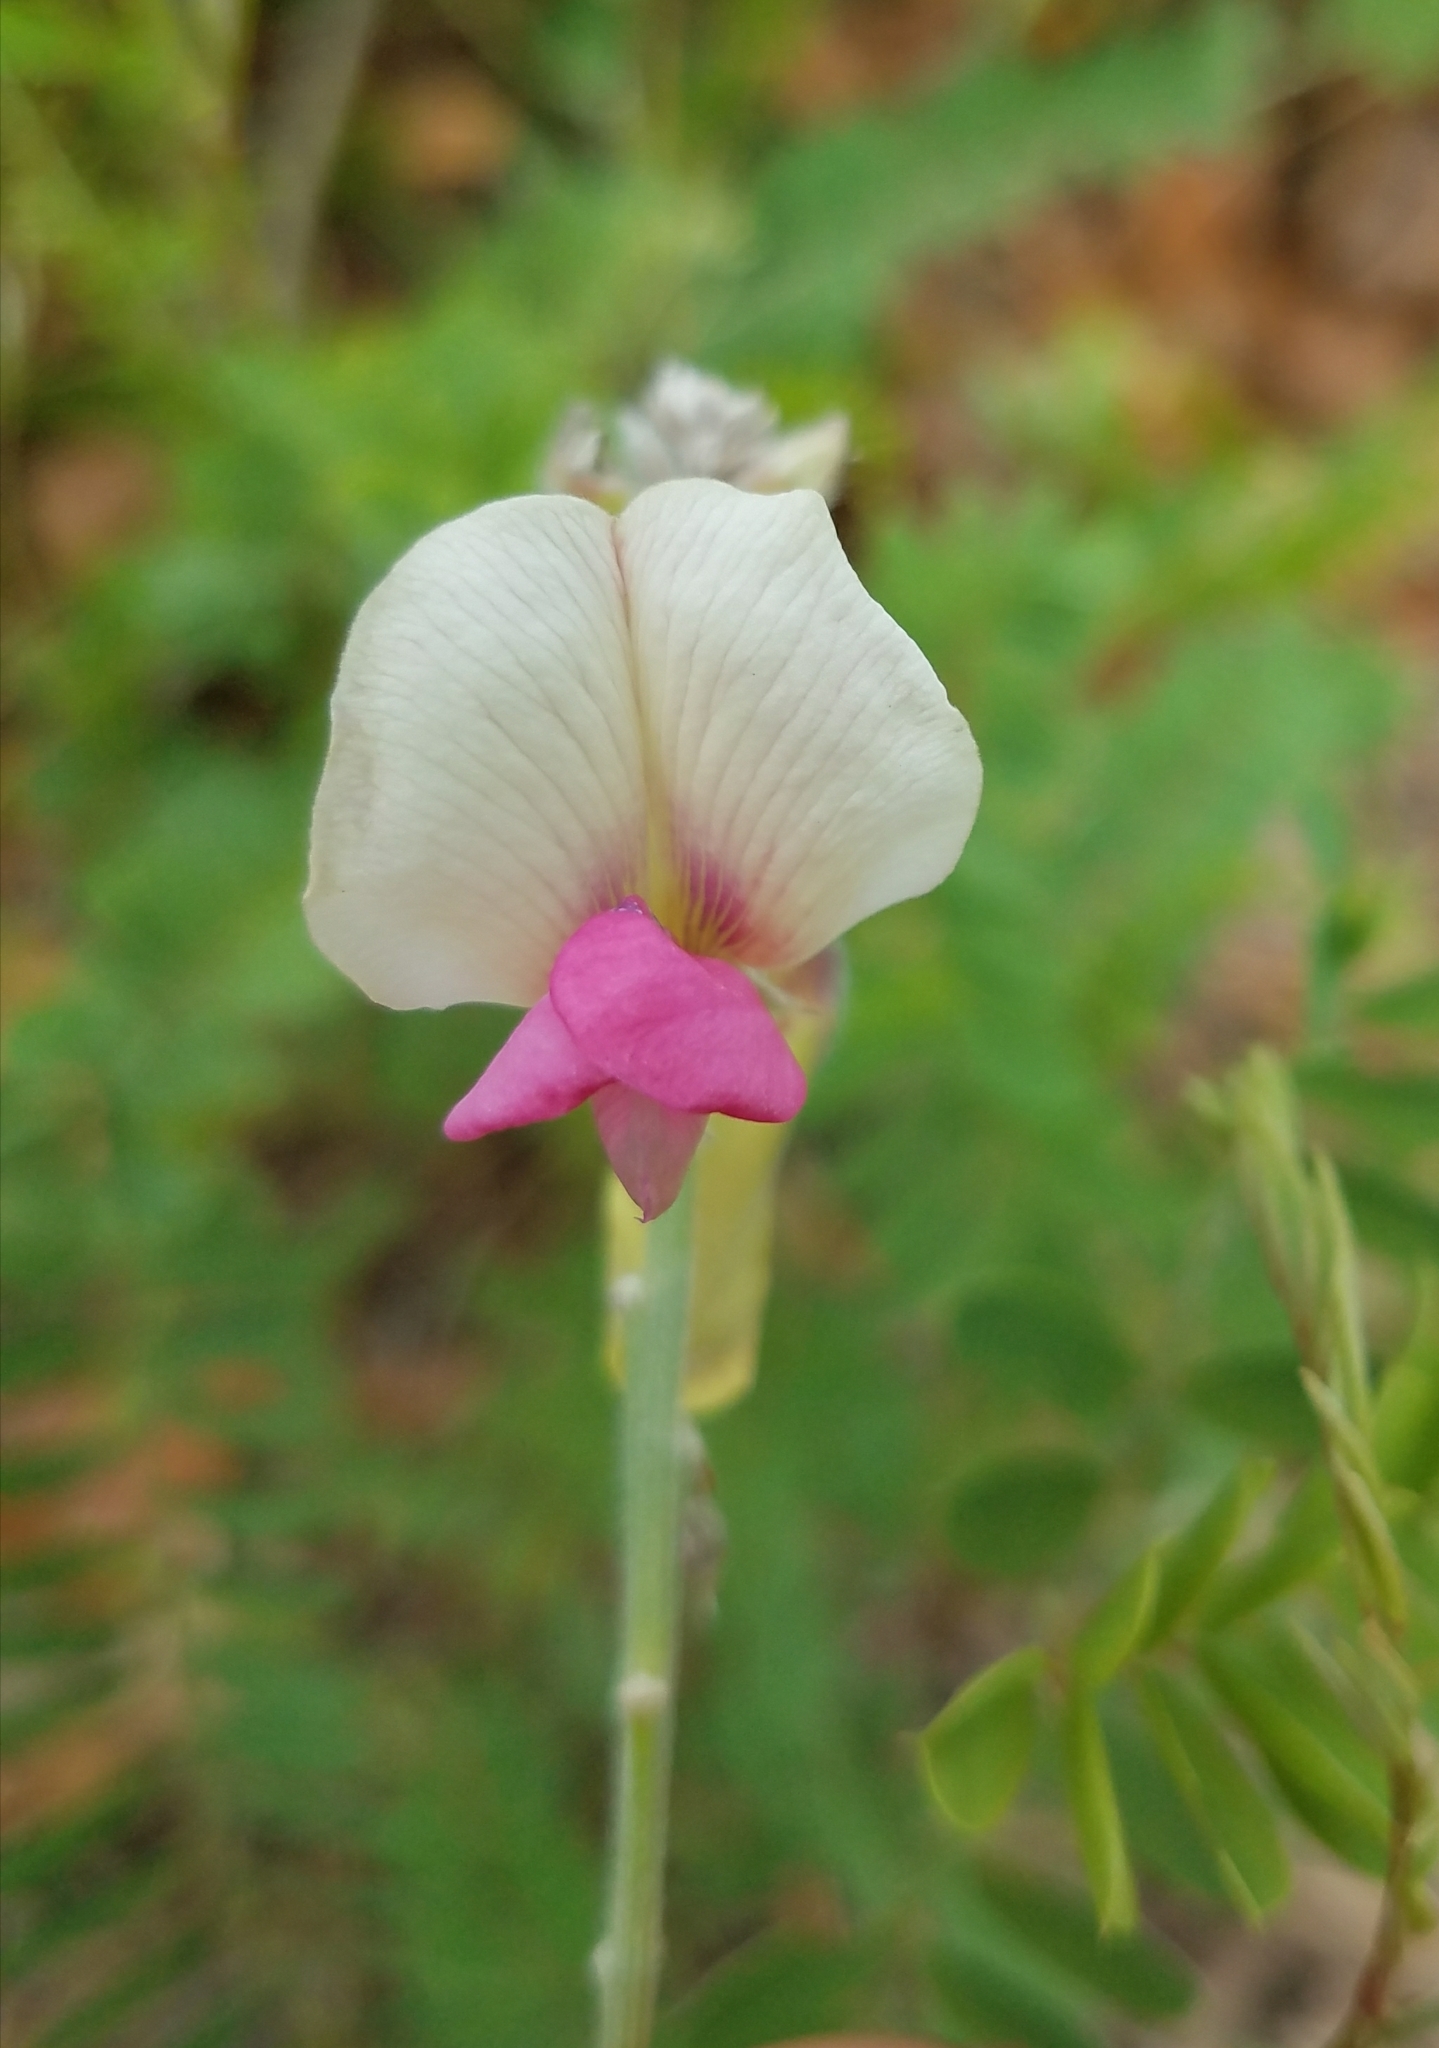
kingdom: Plantae
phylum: Tracheophyta
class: Magnoliopsida
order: Fabales
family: Fabaceae
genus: Tephrosia
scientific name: Tephrosia virginiana
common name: Rabbit-pea
